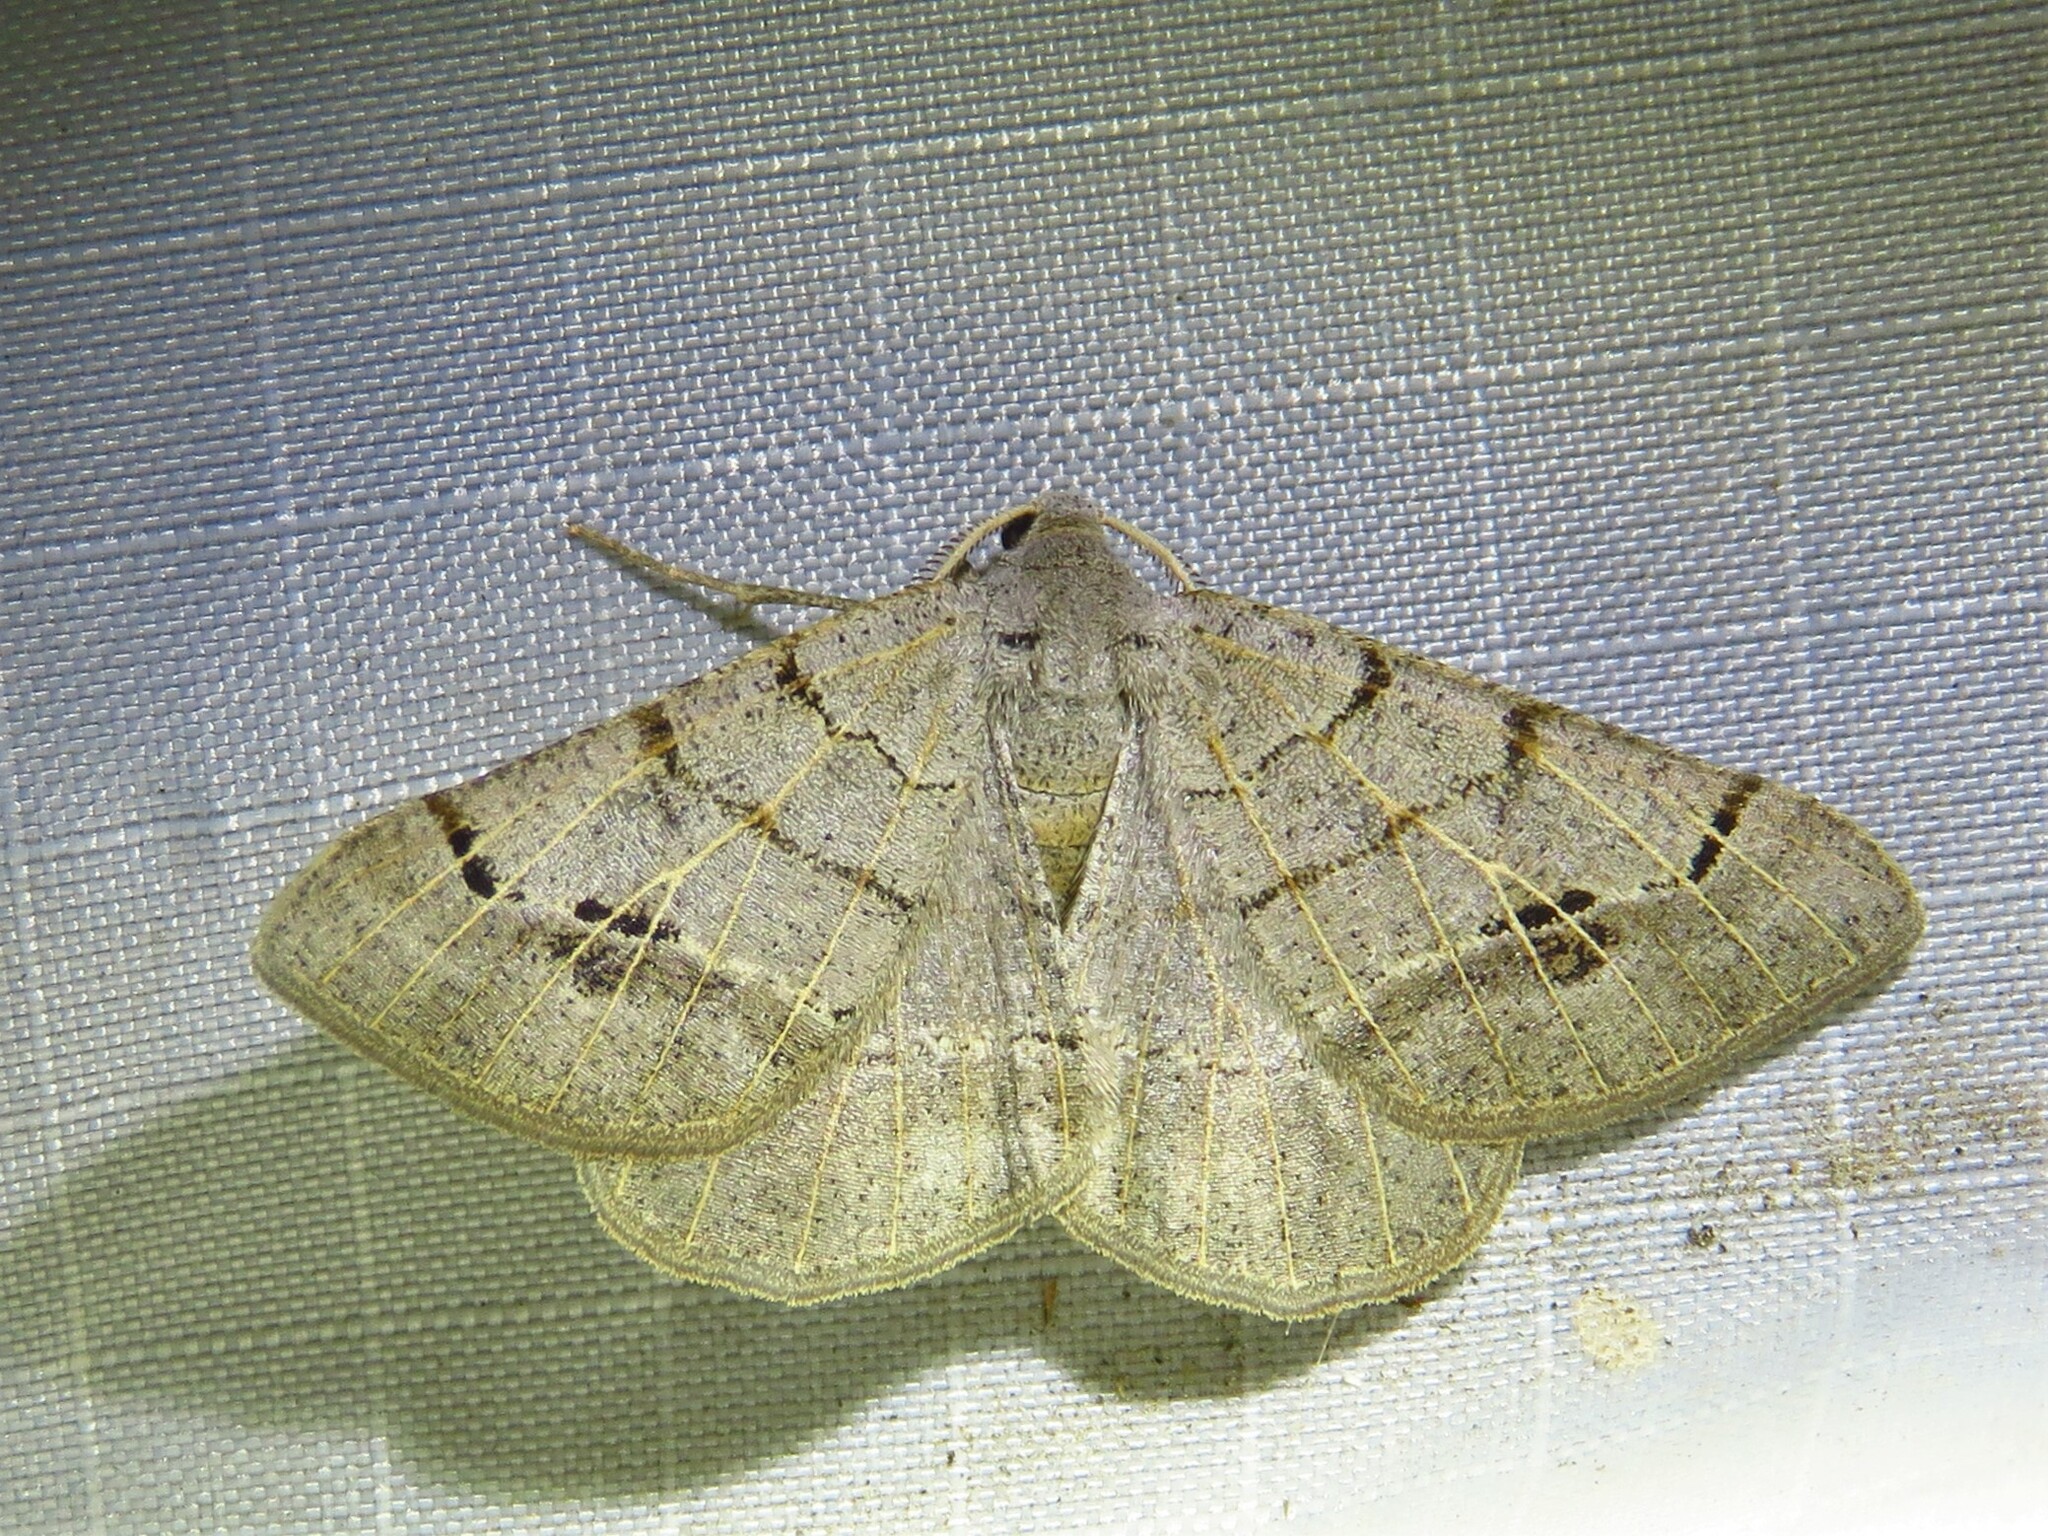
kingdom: Animalia
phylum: Arthropoda
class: Insecta
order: Lepidoptera
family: Geometridae
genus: Isturgia
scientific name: Isturgia dislocaria
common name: Pale-viened enconista
